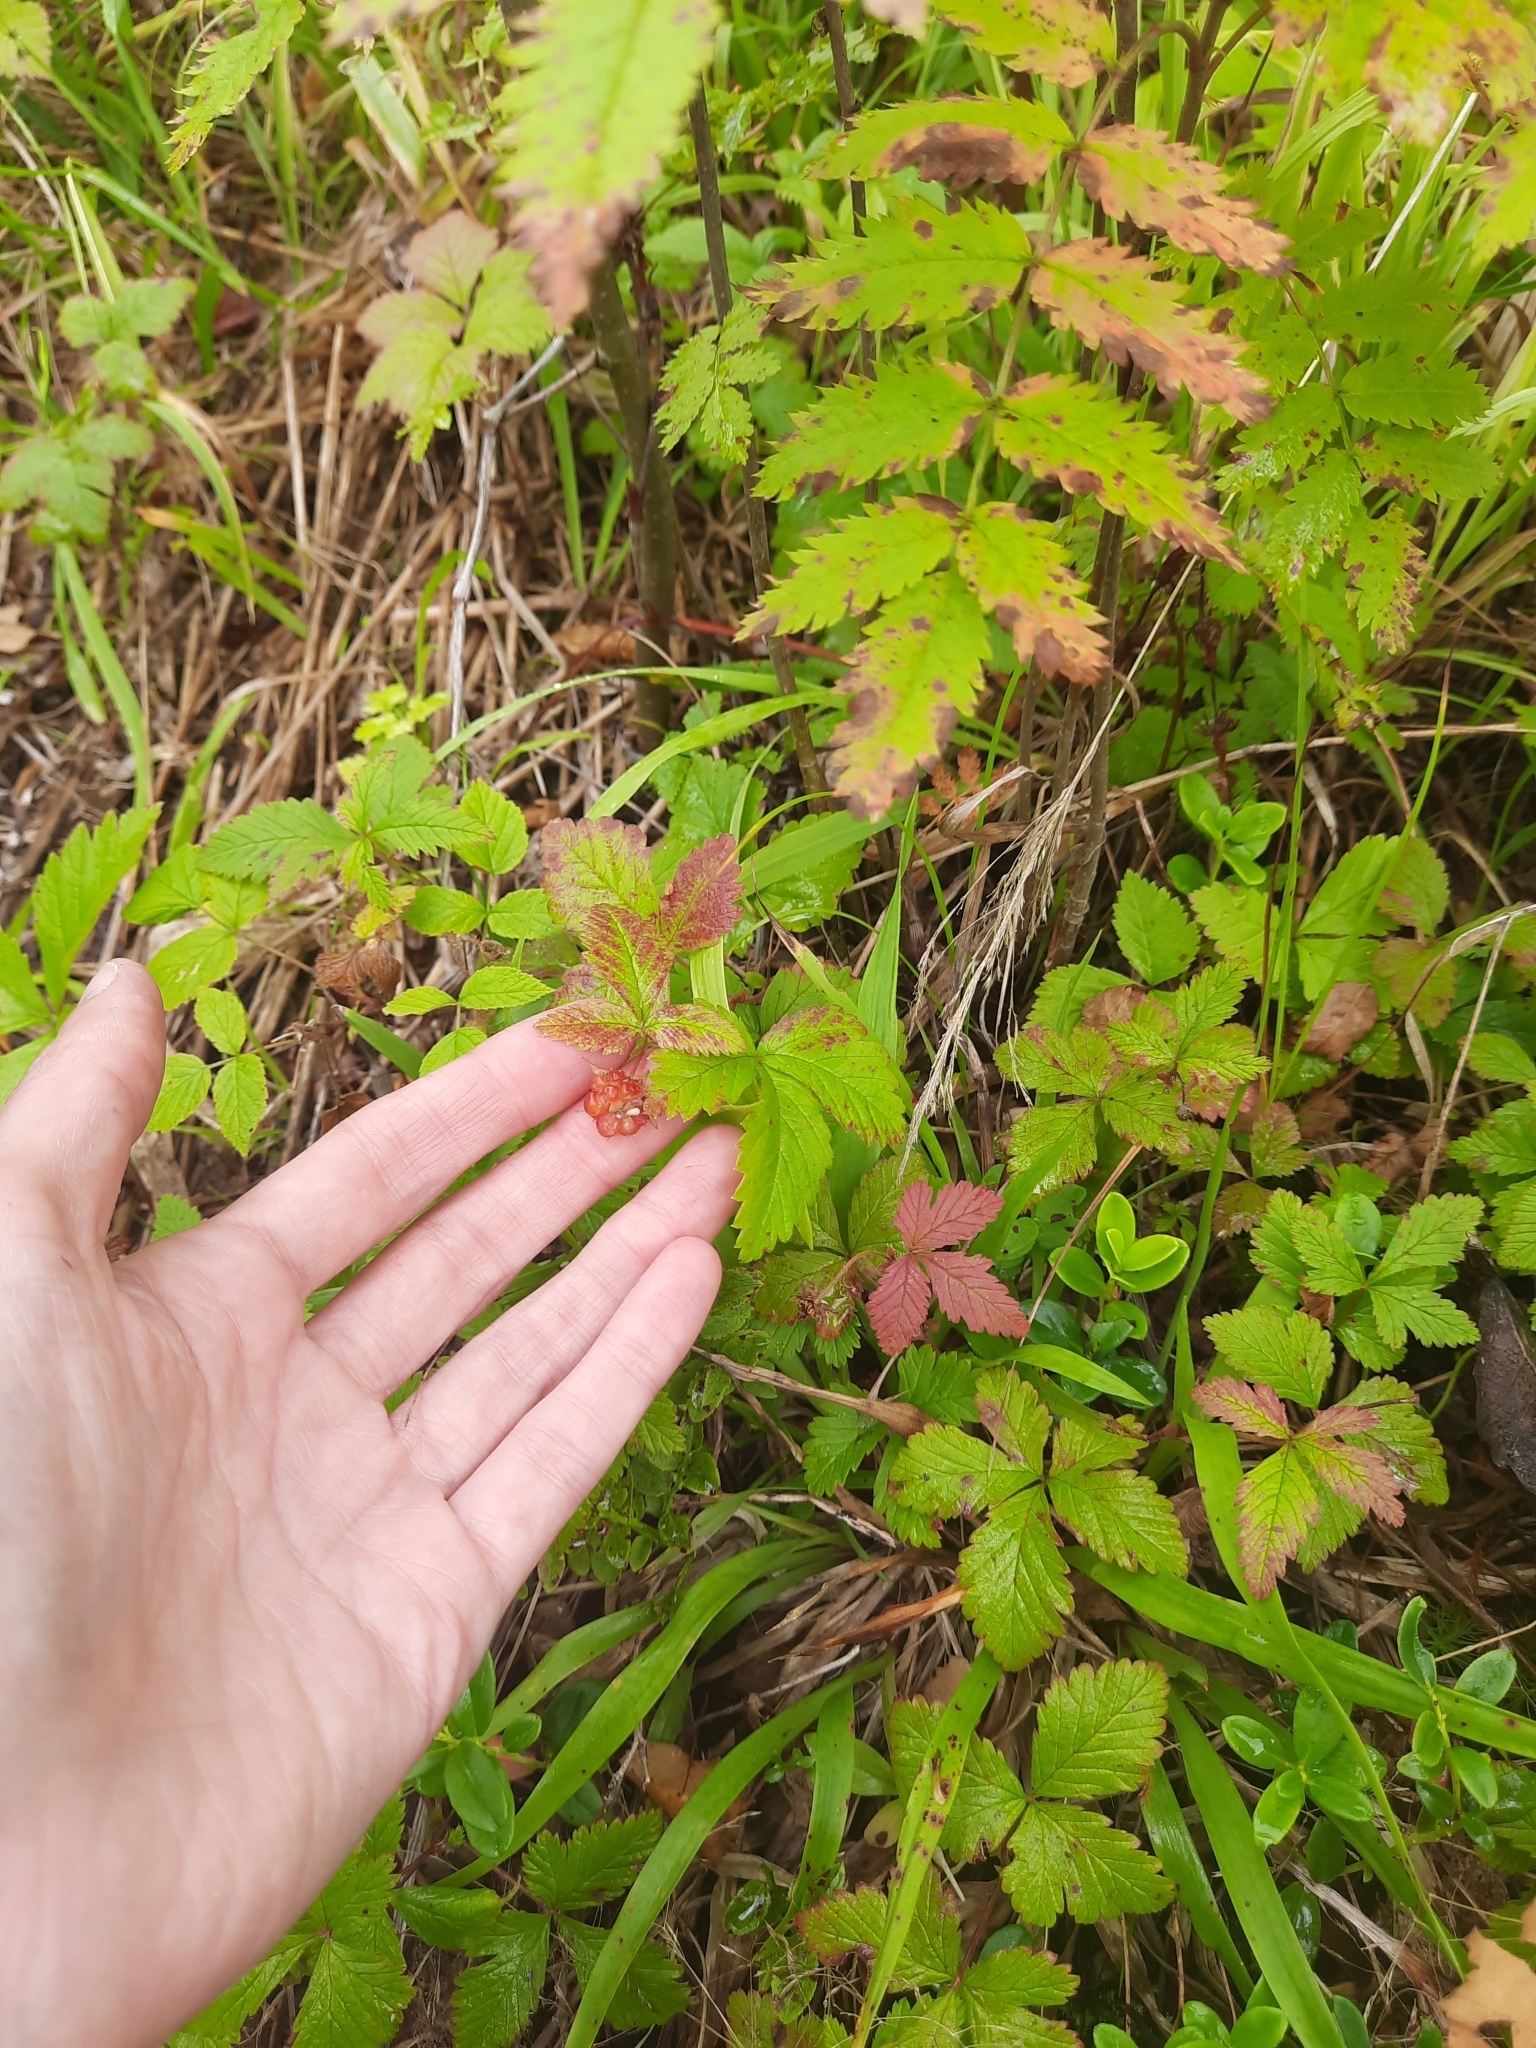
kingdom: Plantae
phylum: Tracheophyta
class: Magnoliopsida
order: Rosales
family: Rosaceae
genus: Rubus
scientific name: Rubus arcticus
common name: Arctic bramble
